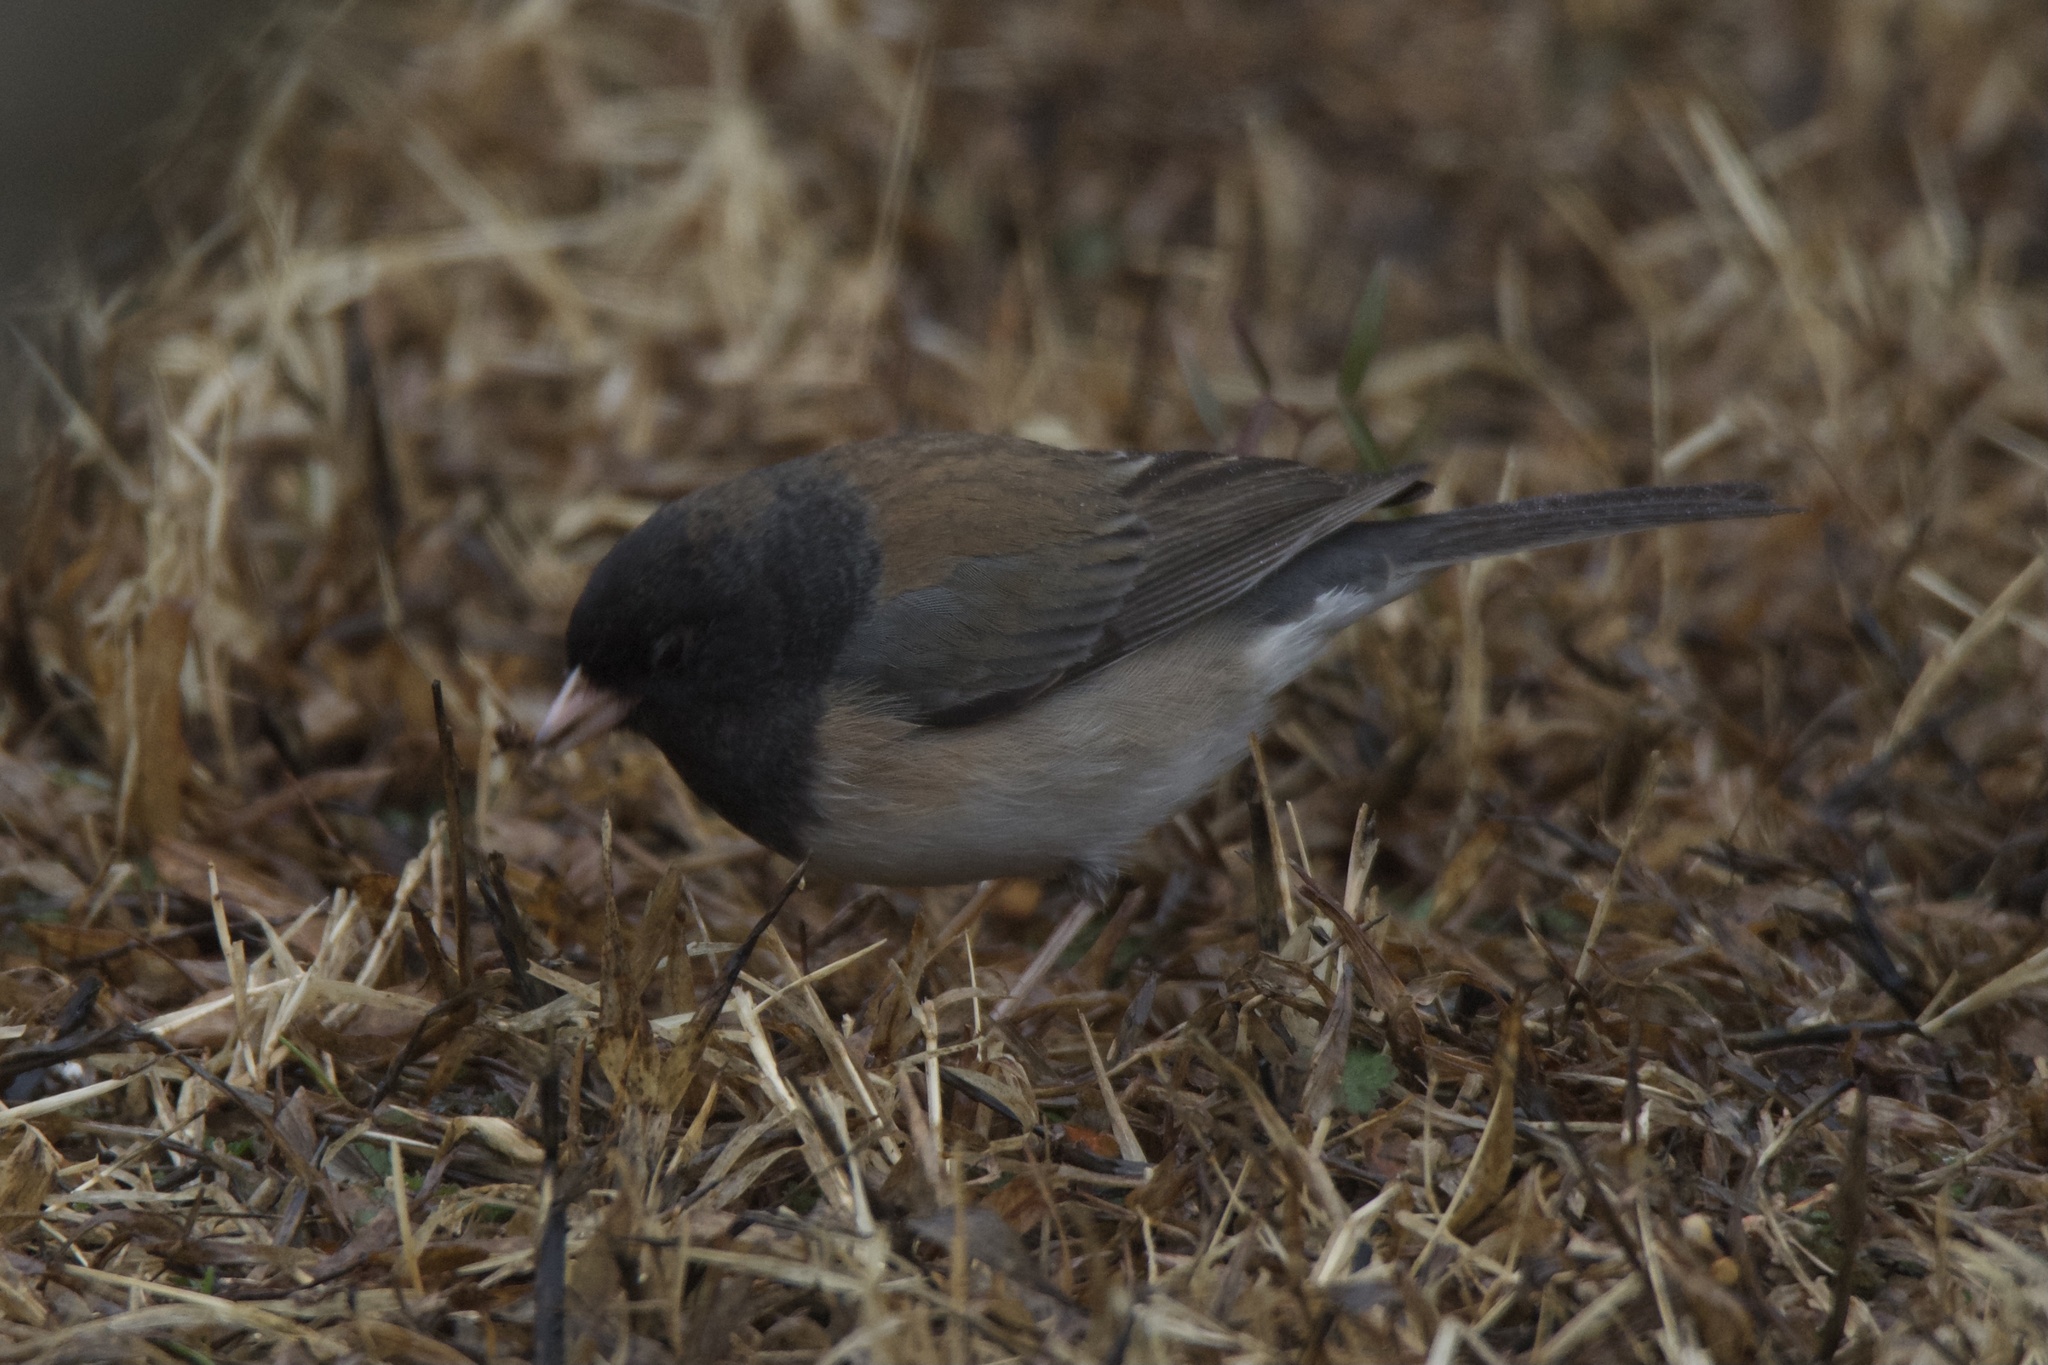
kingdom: Animalia
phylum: Chordata
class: Aves
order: Passeriformes
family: Passerellidae
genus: Junco
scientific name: Junco hyemalis
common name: Dark-eyed junco
